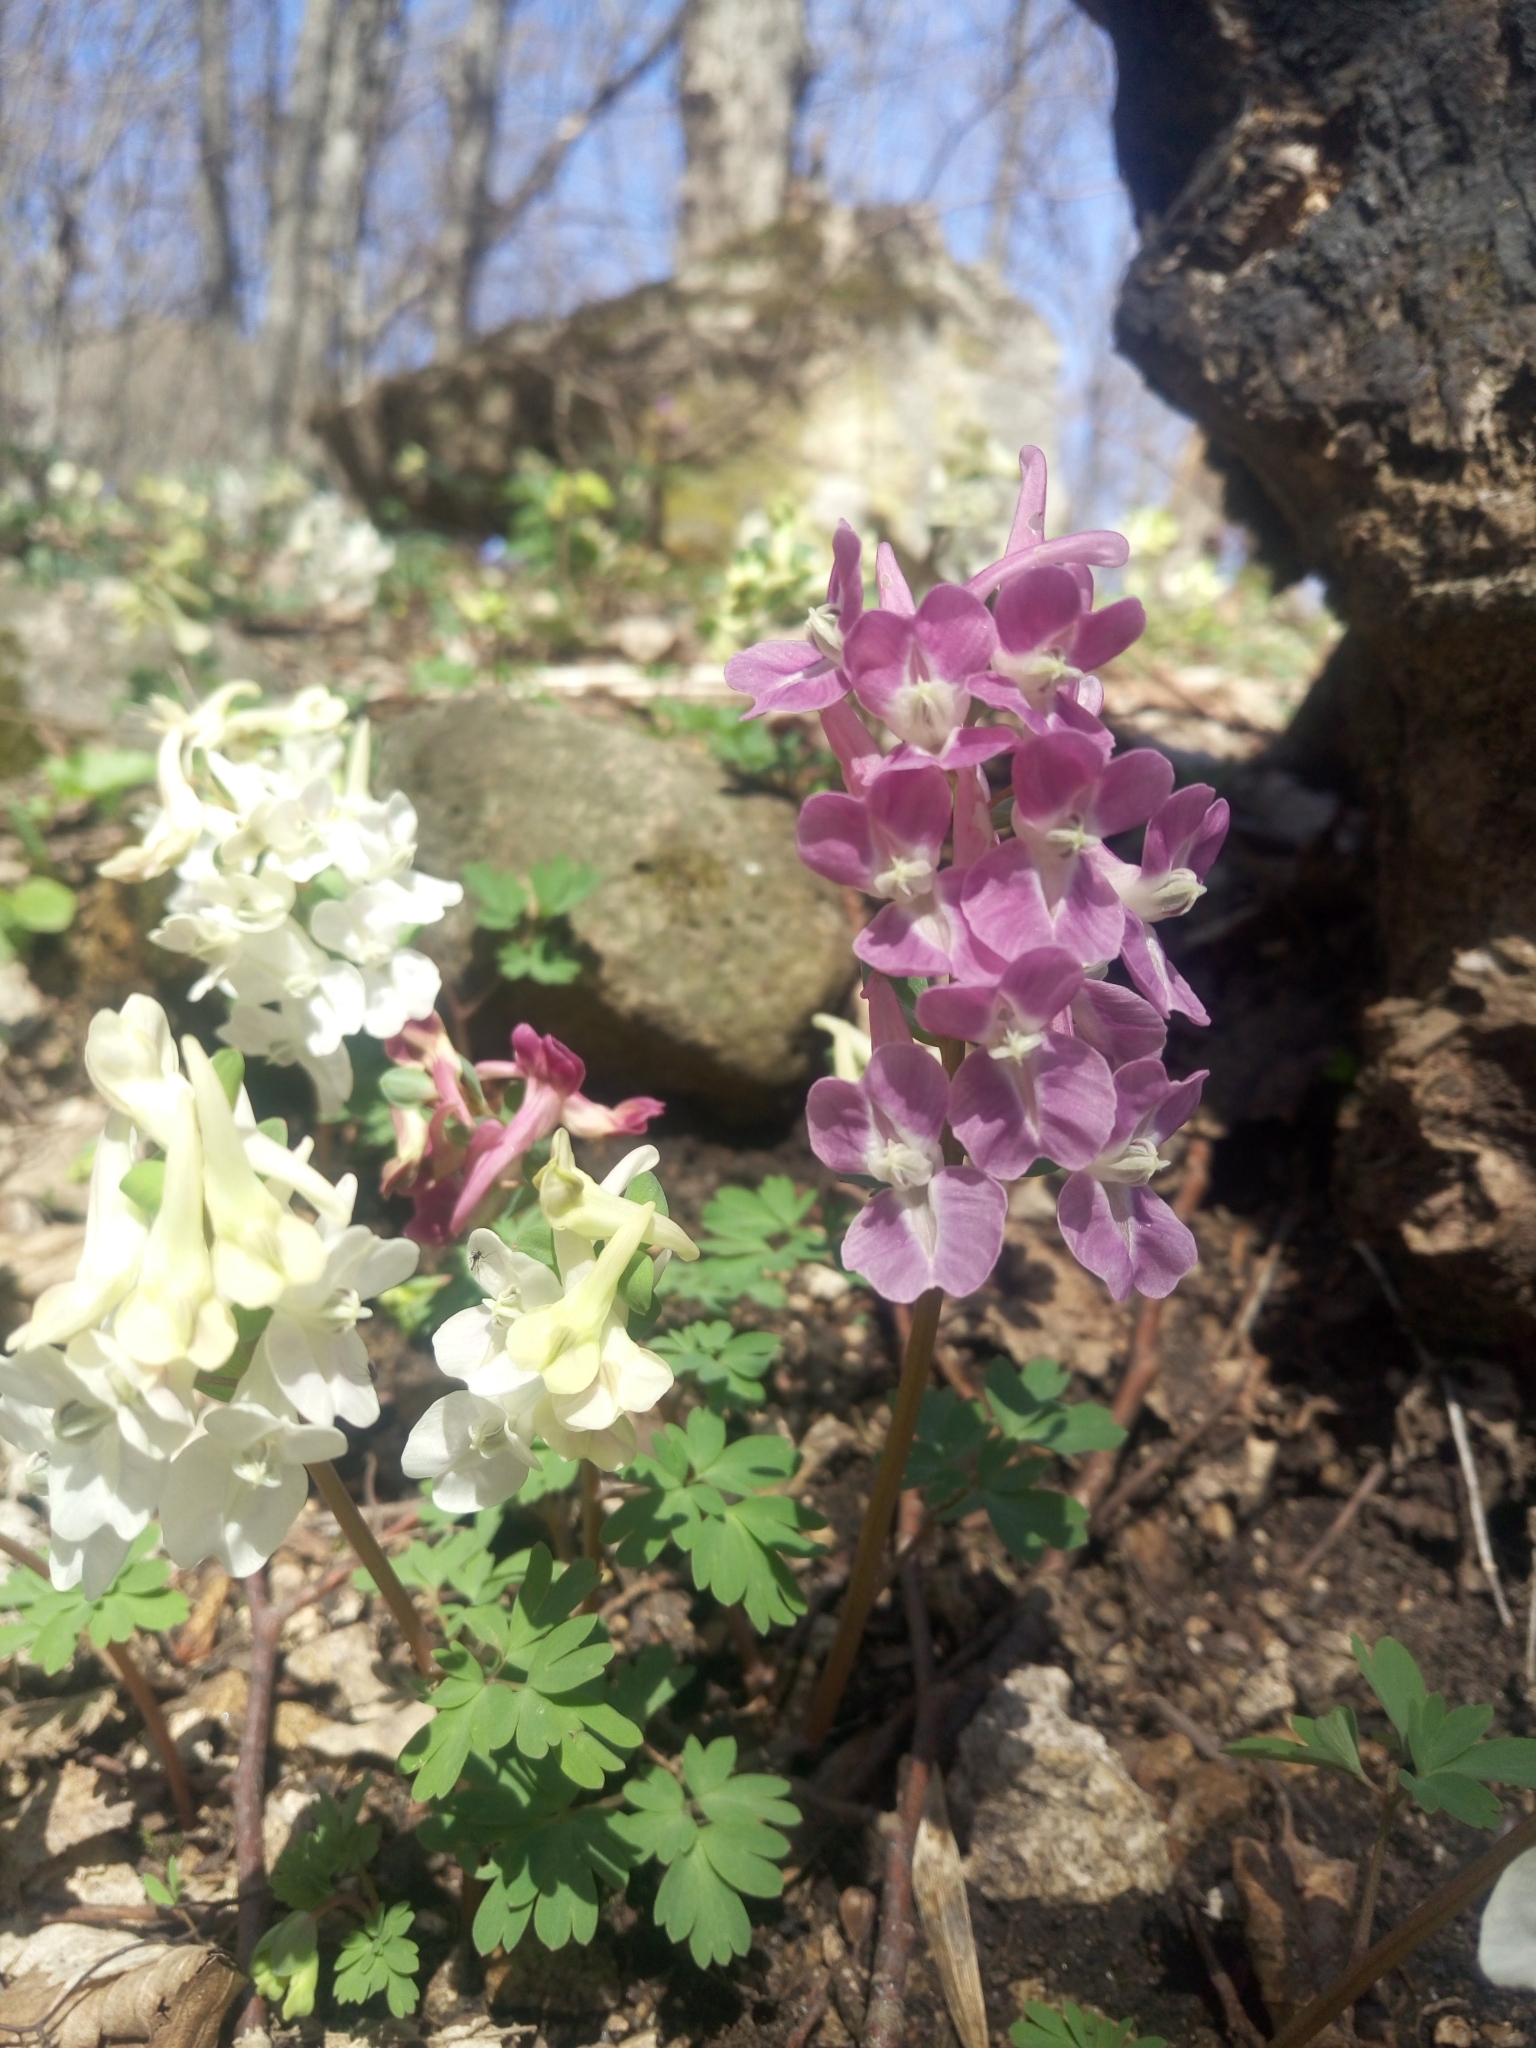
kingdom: Plantae
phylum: Tracheophyta
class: Magnoliopsida
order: Ranunculales
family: Papaveraceae
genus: Corydalis
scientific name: Corydalis caucasica
